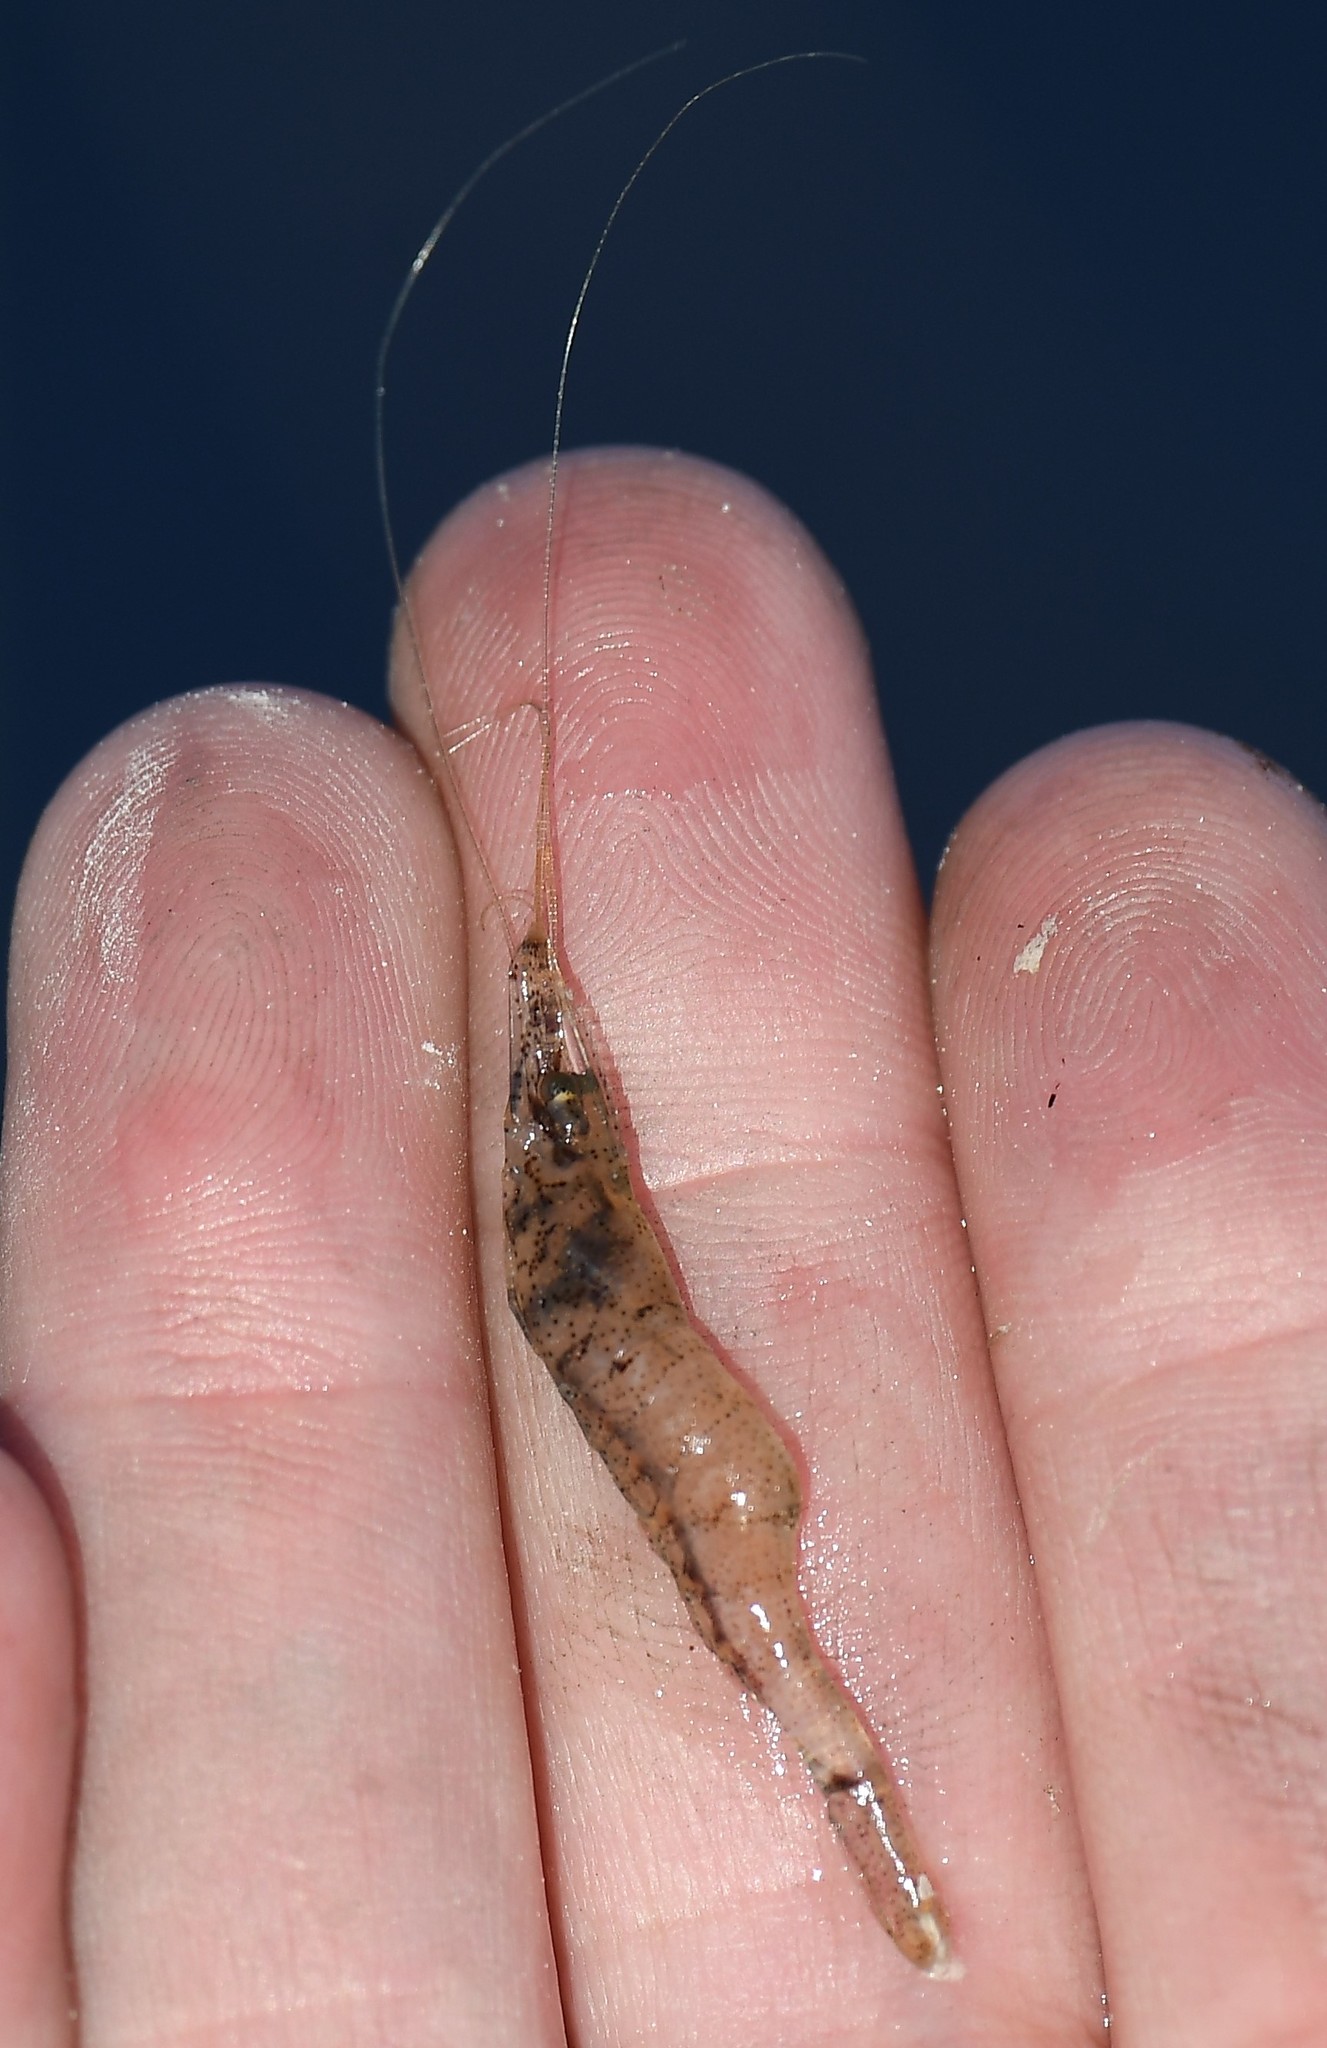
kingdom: Animalia
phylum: Arthropoda
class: Malacostraca
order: Decapoda
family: Palaemonidae
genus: Palaemon
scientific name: Palaemon kadiakensis
